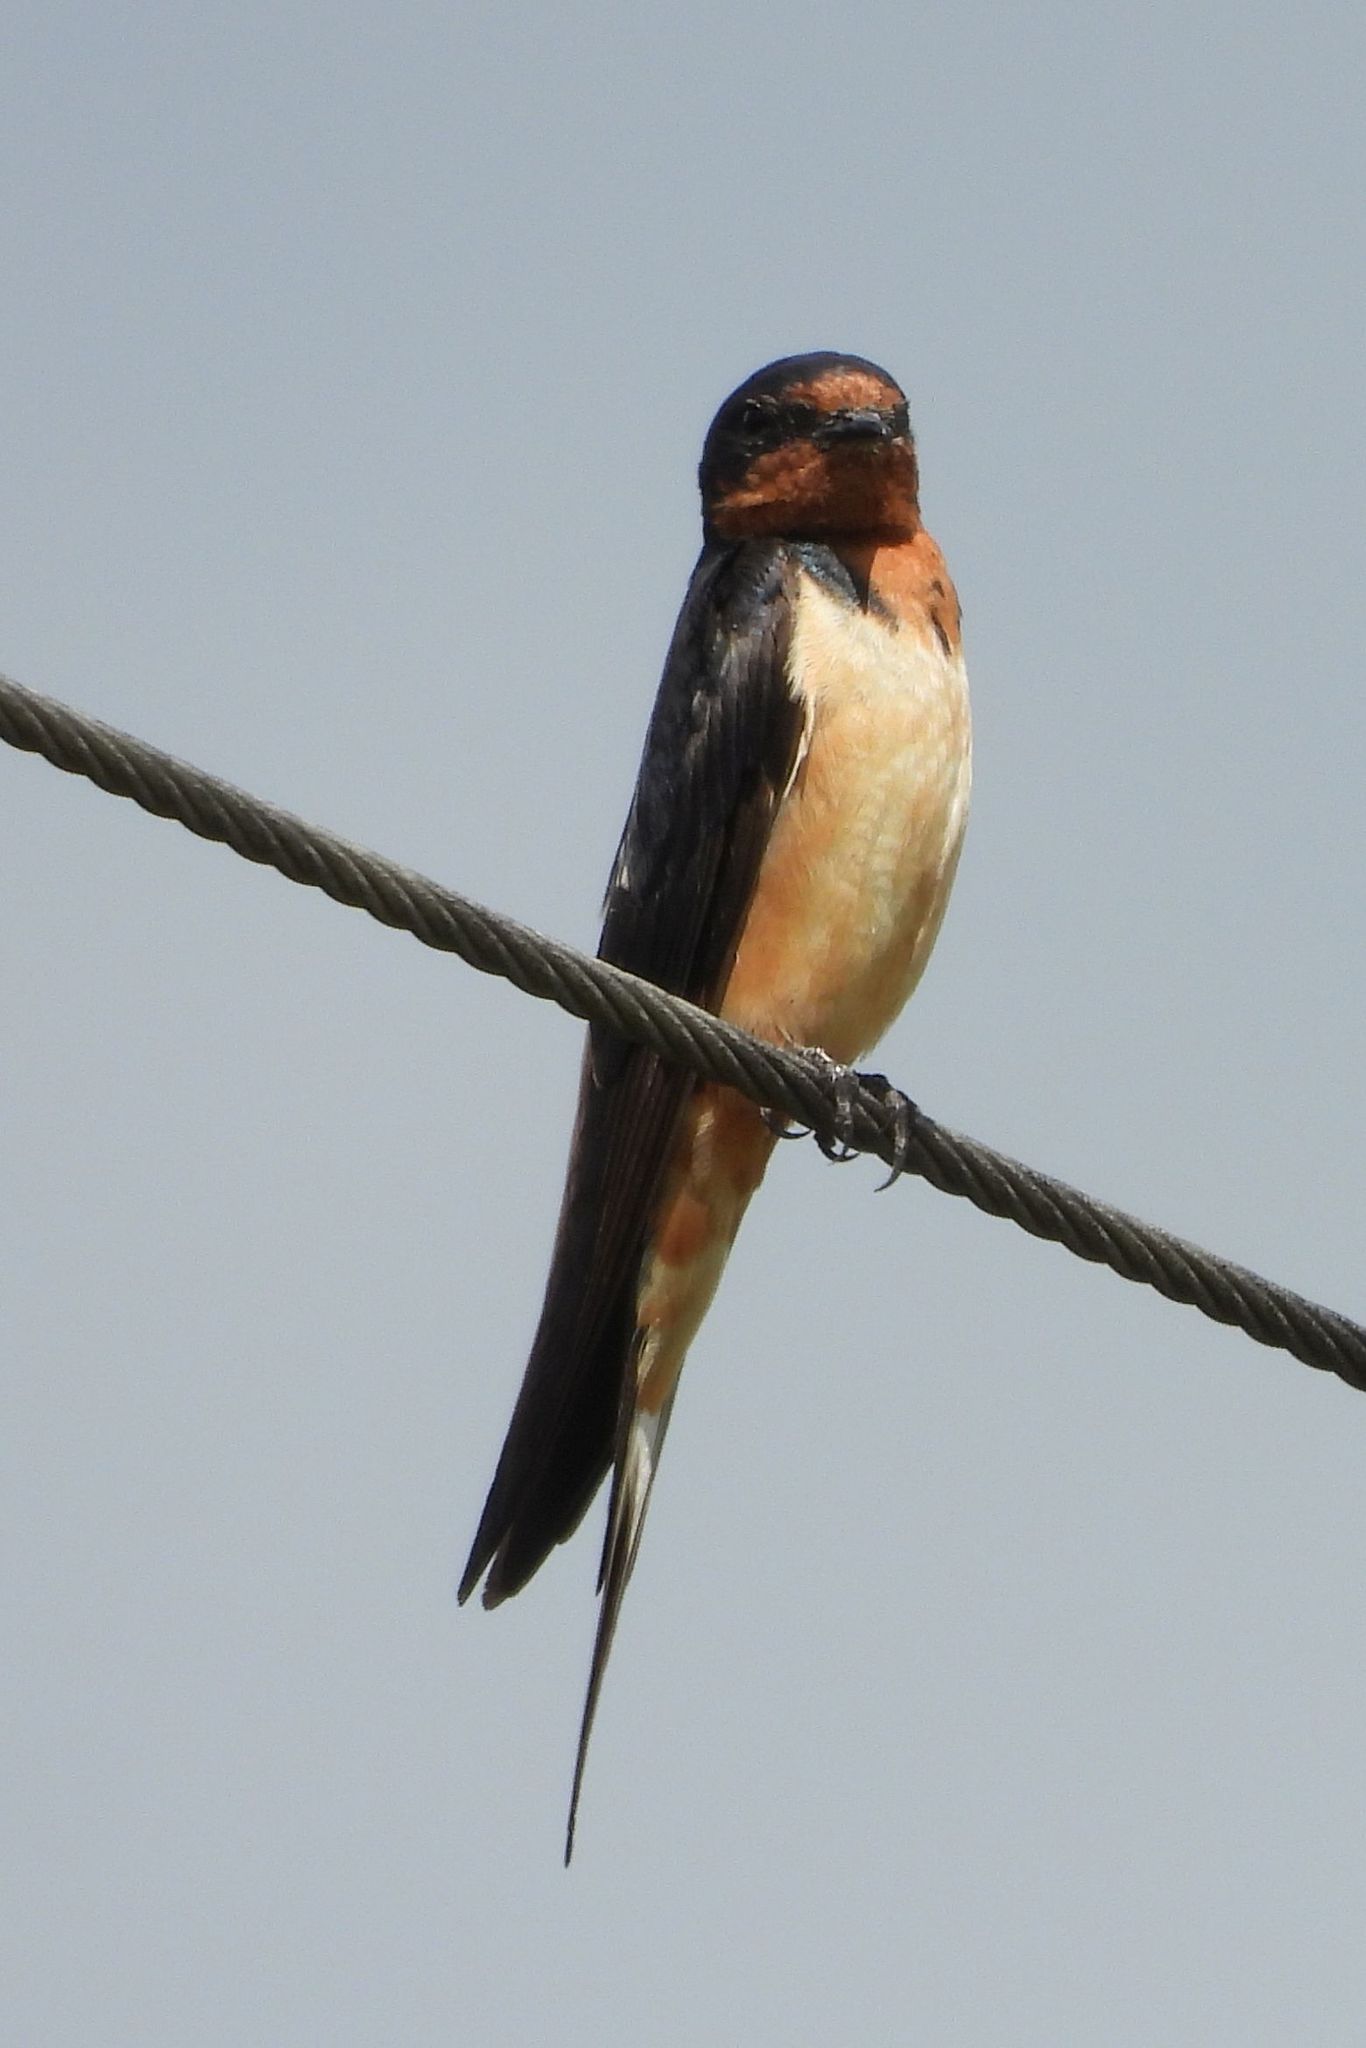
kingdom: Animalia
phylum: Chordata
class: Aves
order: Passeriformes
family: Hirundinidae
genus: Hirundo
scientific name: Hirundo rustica
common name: Barn swallow
